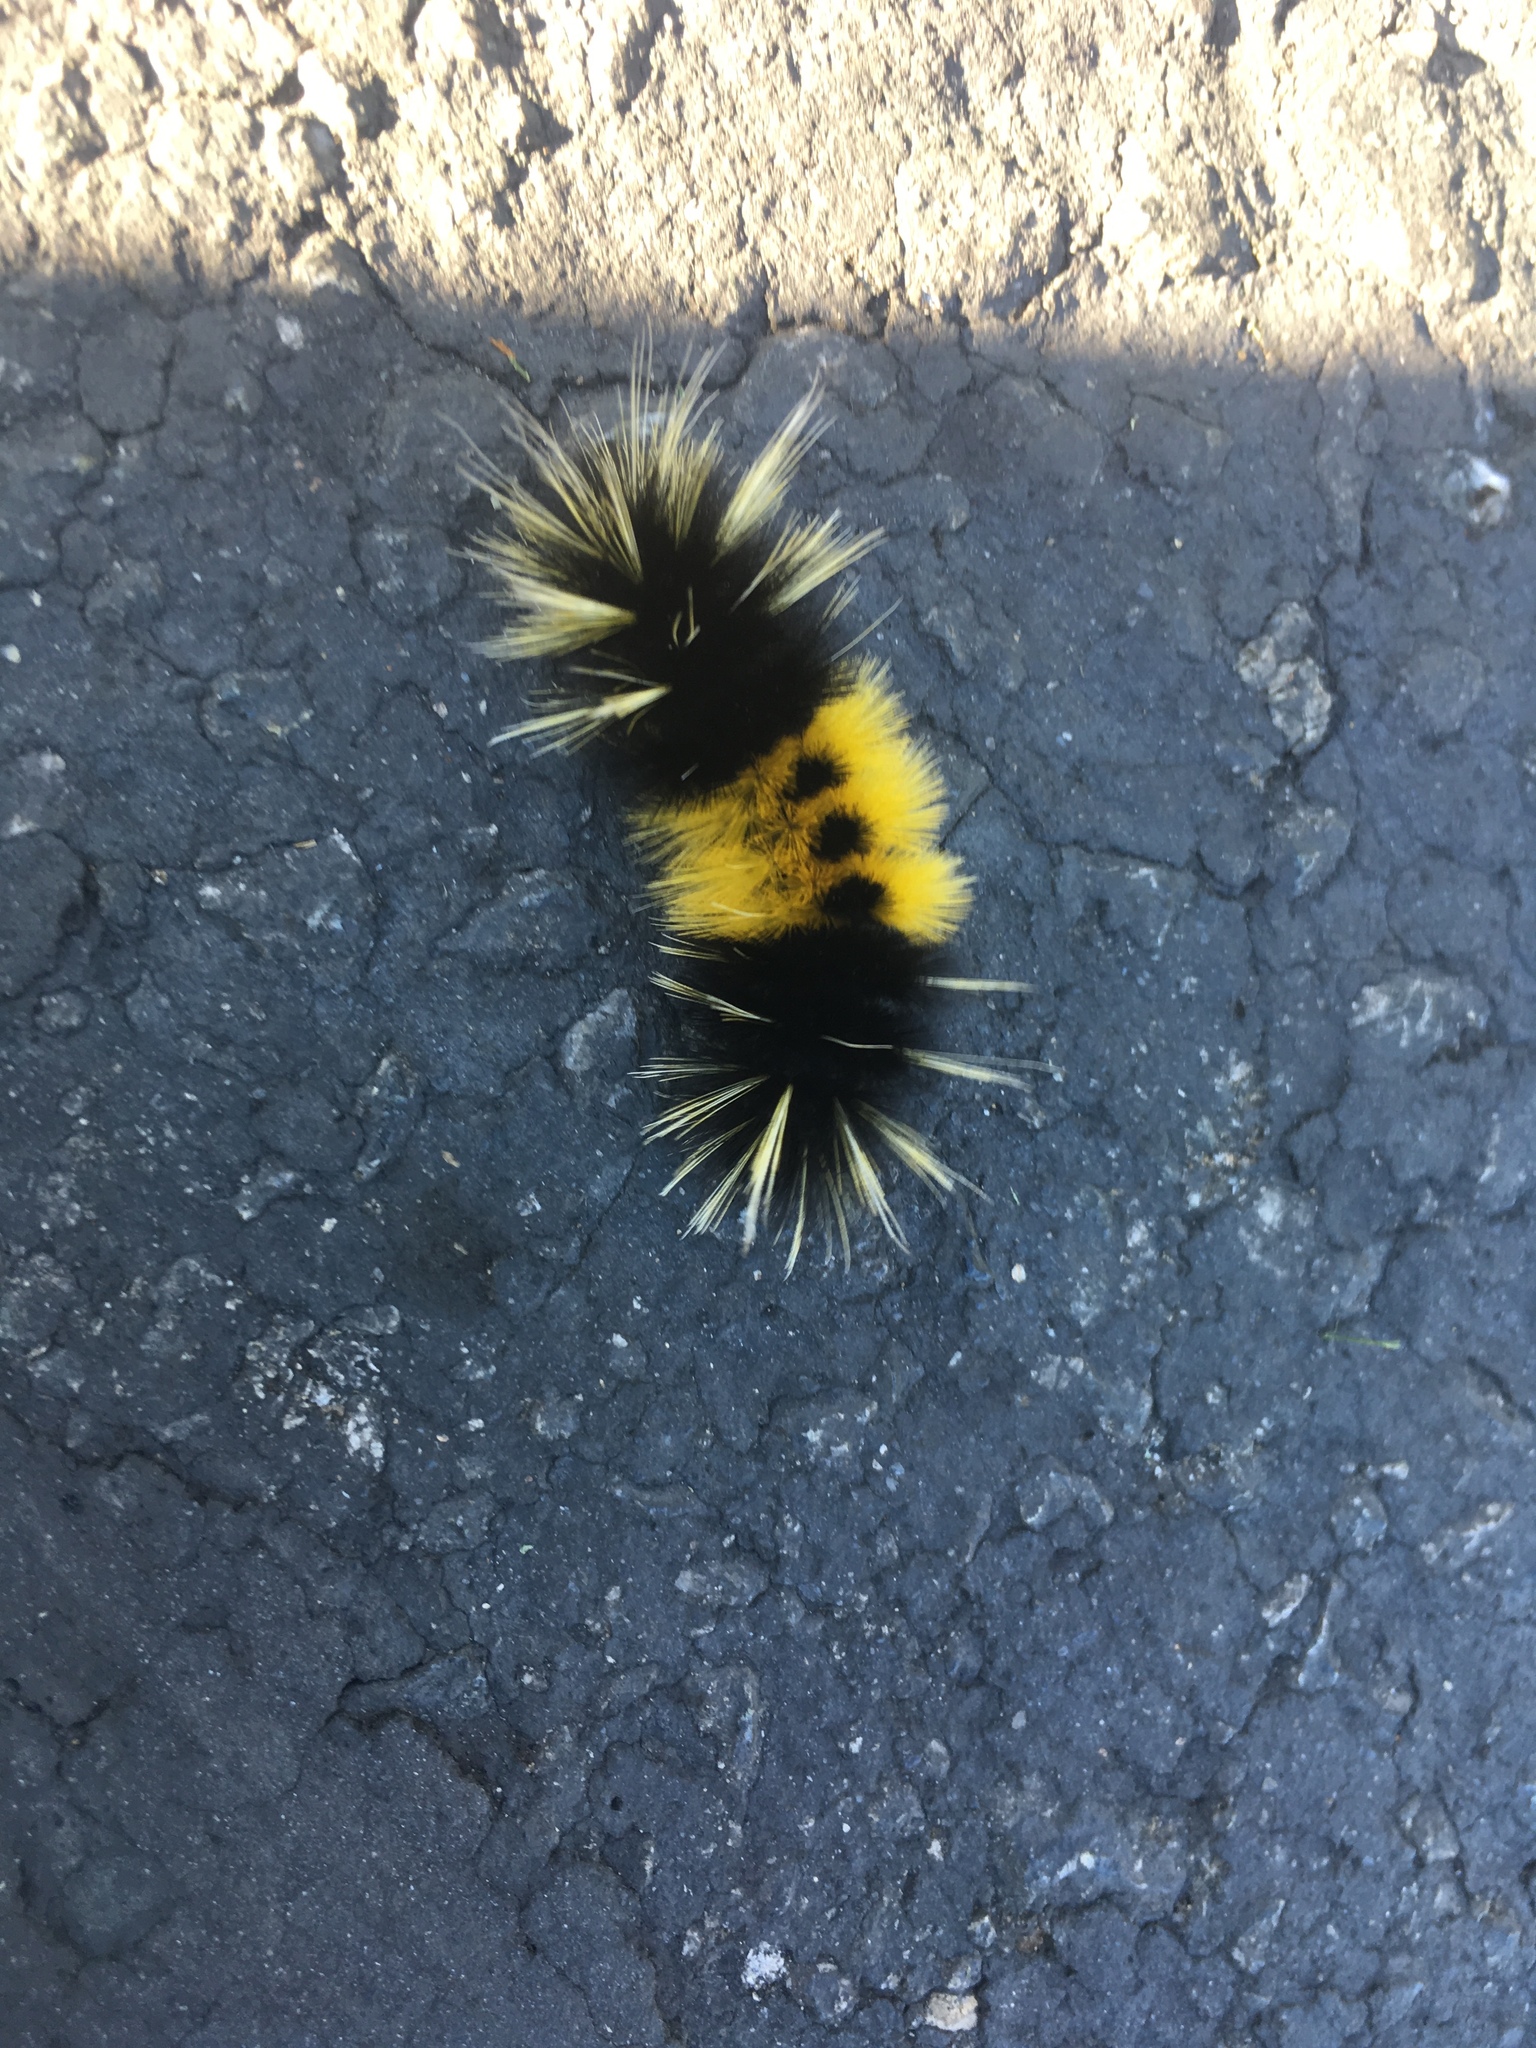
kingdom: Animalia
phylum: Arthropoda
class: Insecta
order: Lepidoptera
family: Erebidae
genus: Lophocampa
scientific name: Lophocampa maculata
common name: Spotted tussock moth
